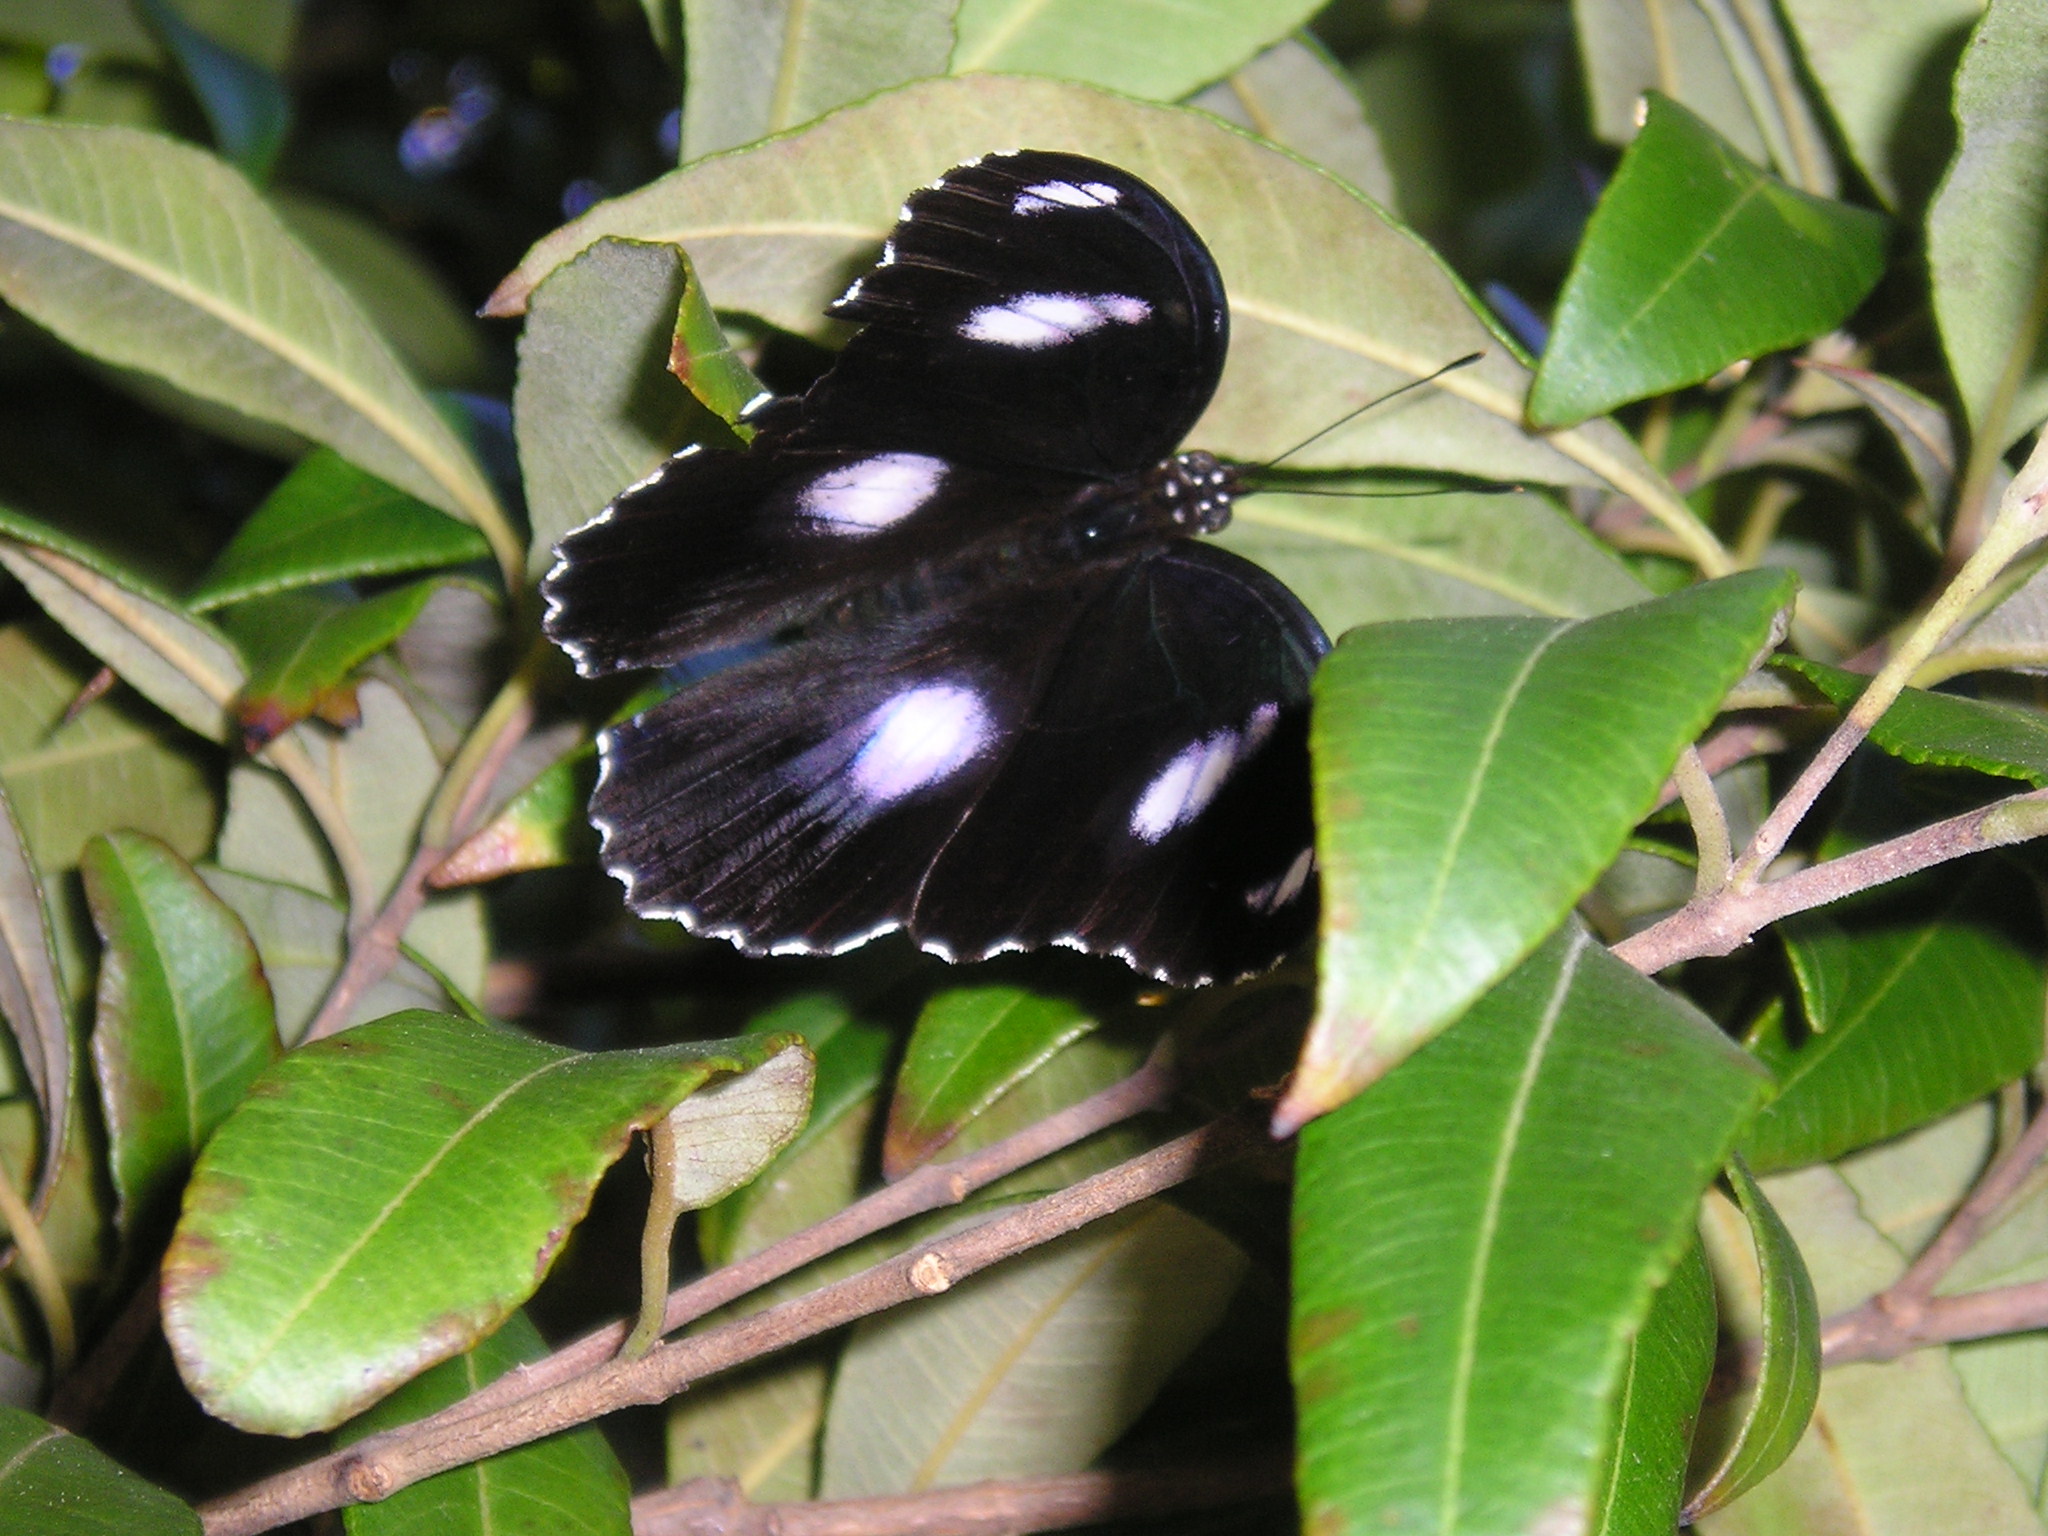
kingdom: Animalia
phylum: Arthropoda
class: Insecta
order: Lepidoptera
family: Nymphalidae
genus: Hypolimnas
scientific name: Hypolimnas bolina
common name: Great eggfly
